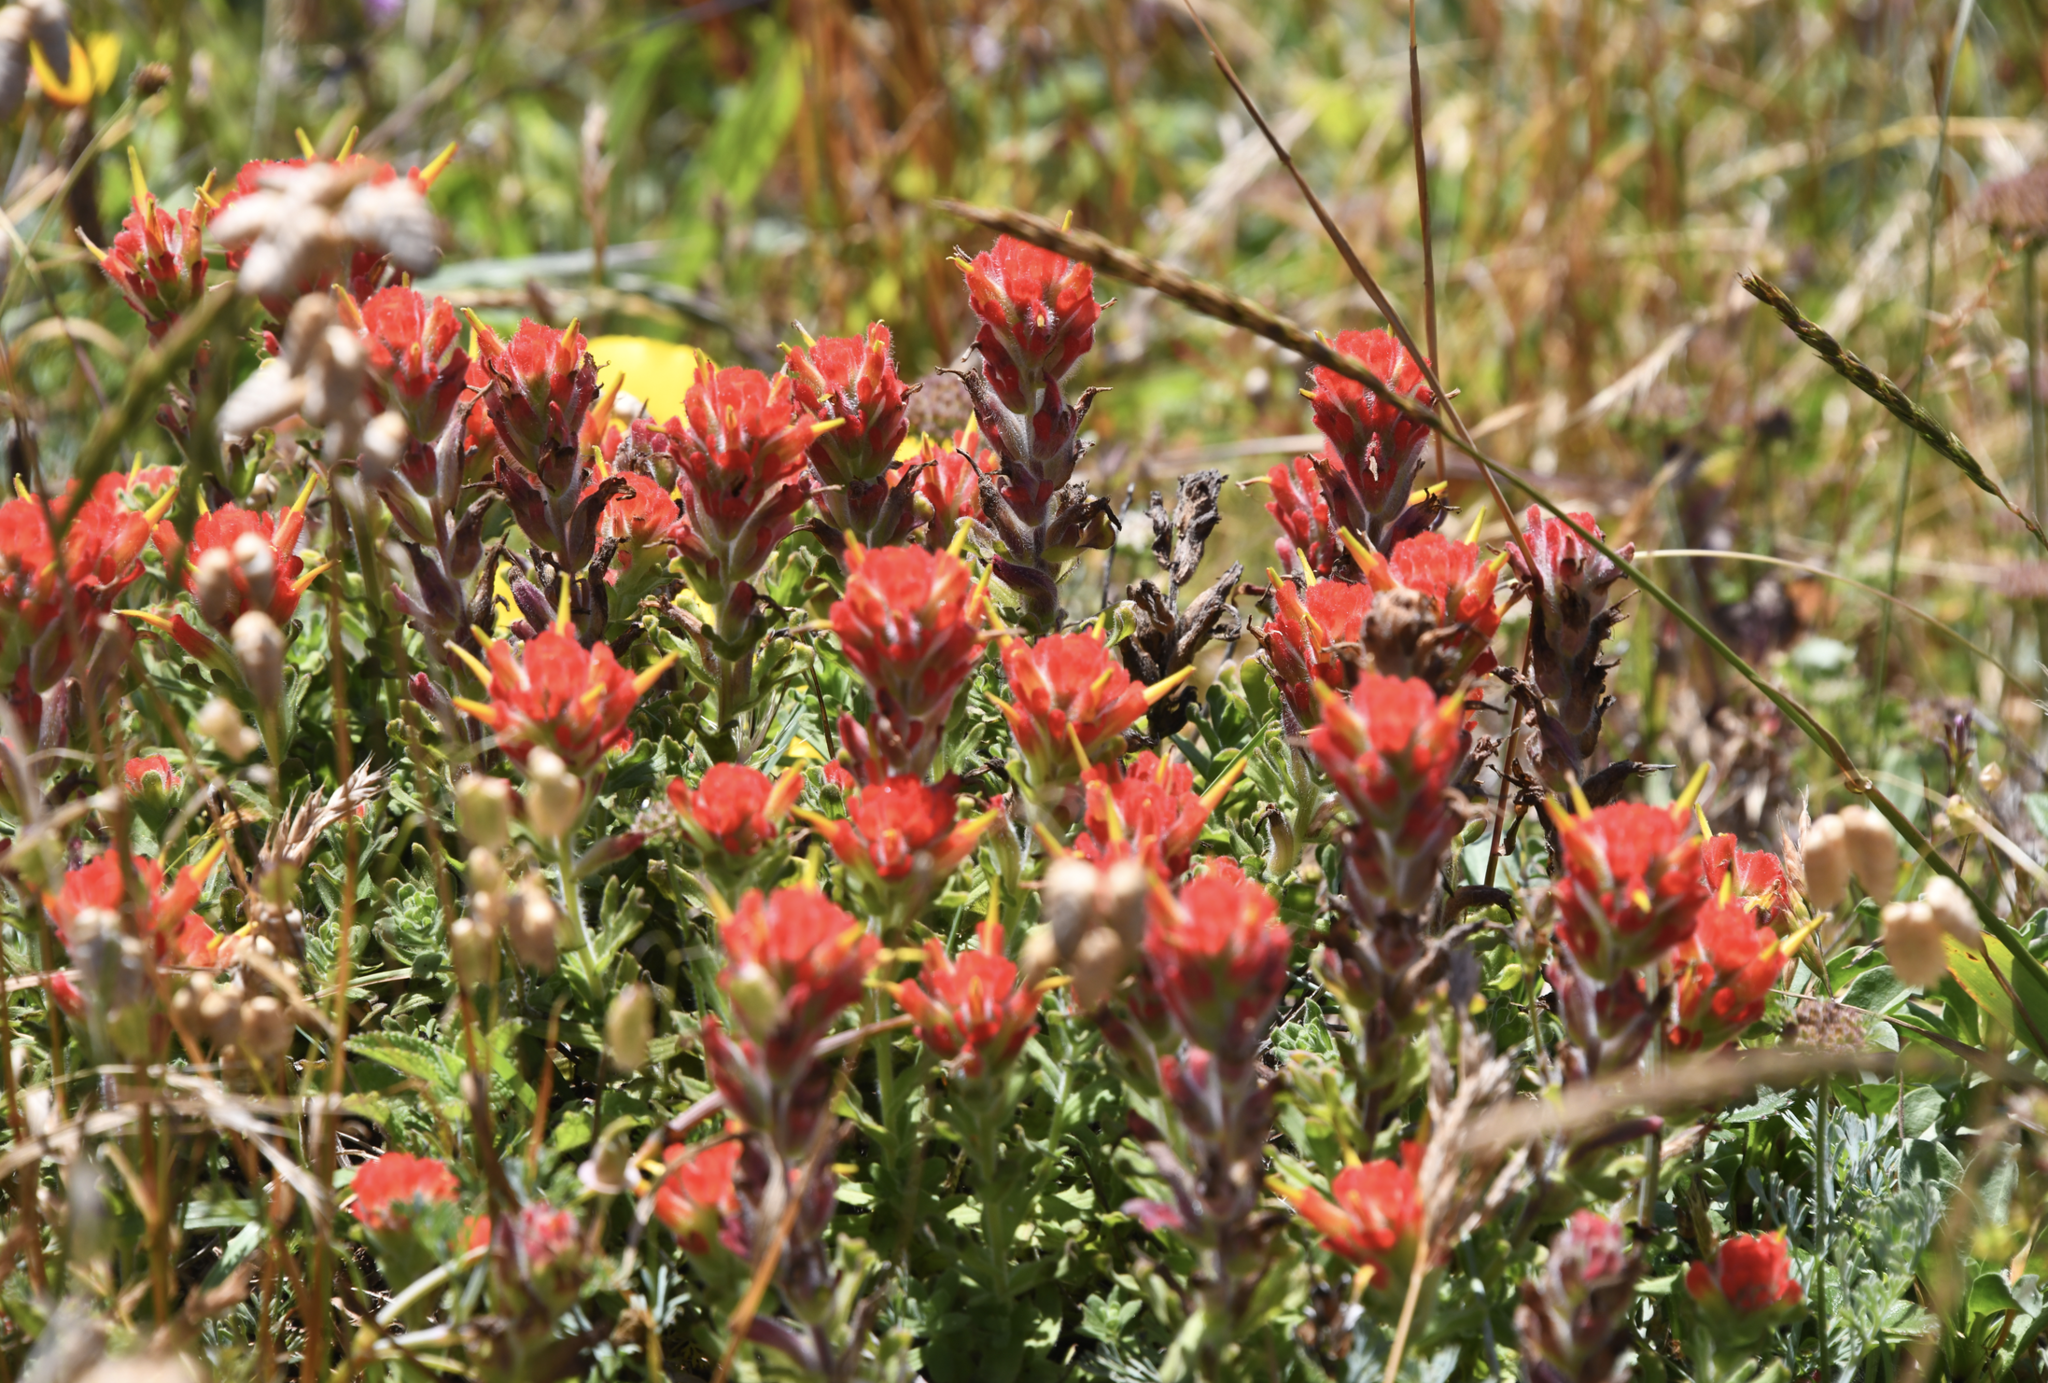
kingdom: Plantae
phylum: Tracheophyta
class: Magnoliopsida
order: Lamiales
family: Orobanchaceae
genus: Castilleja
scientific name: Castilleja wightii
